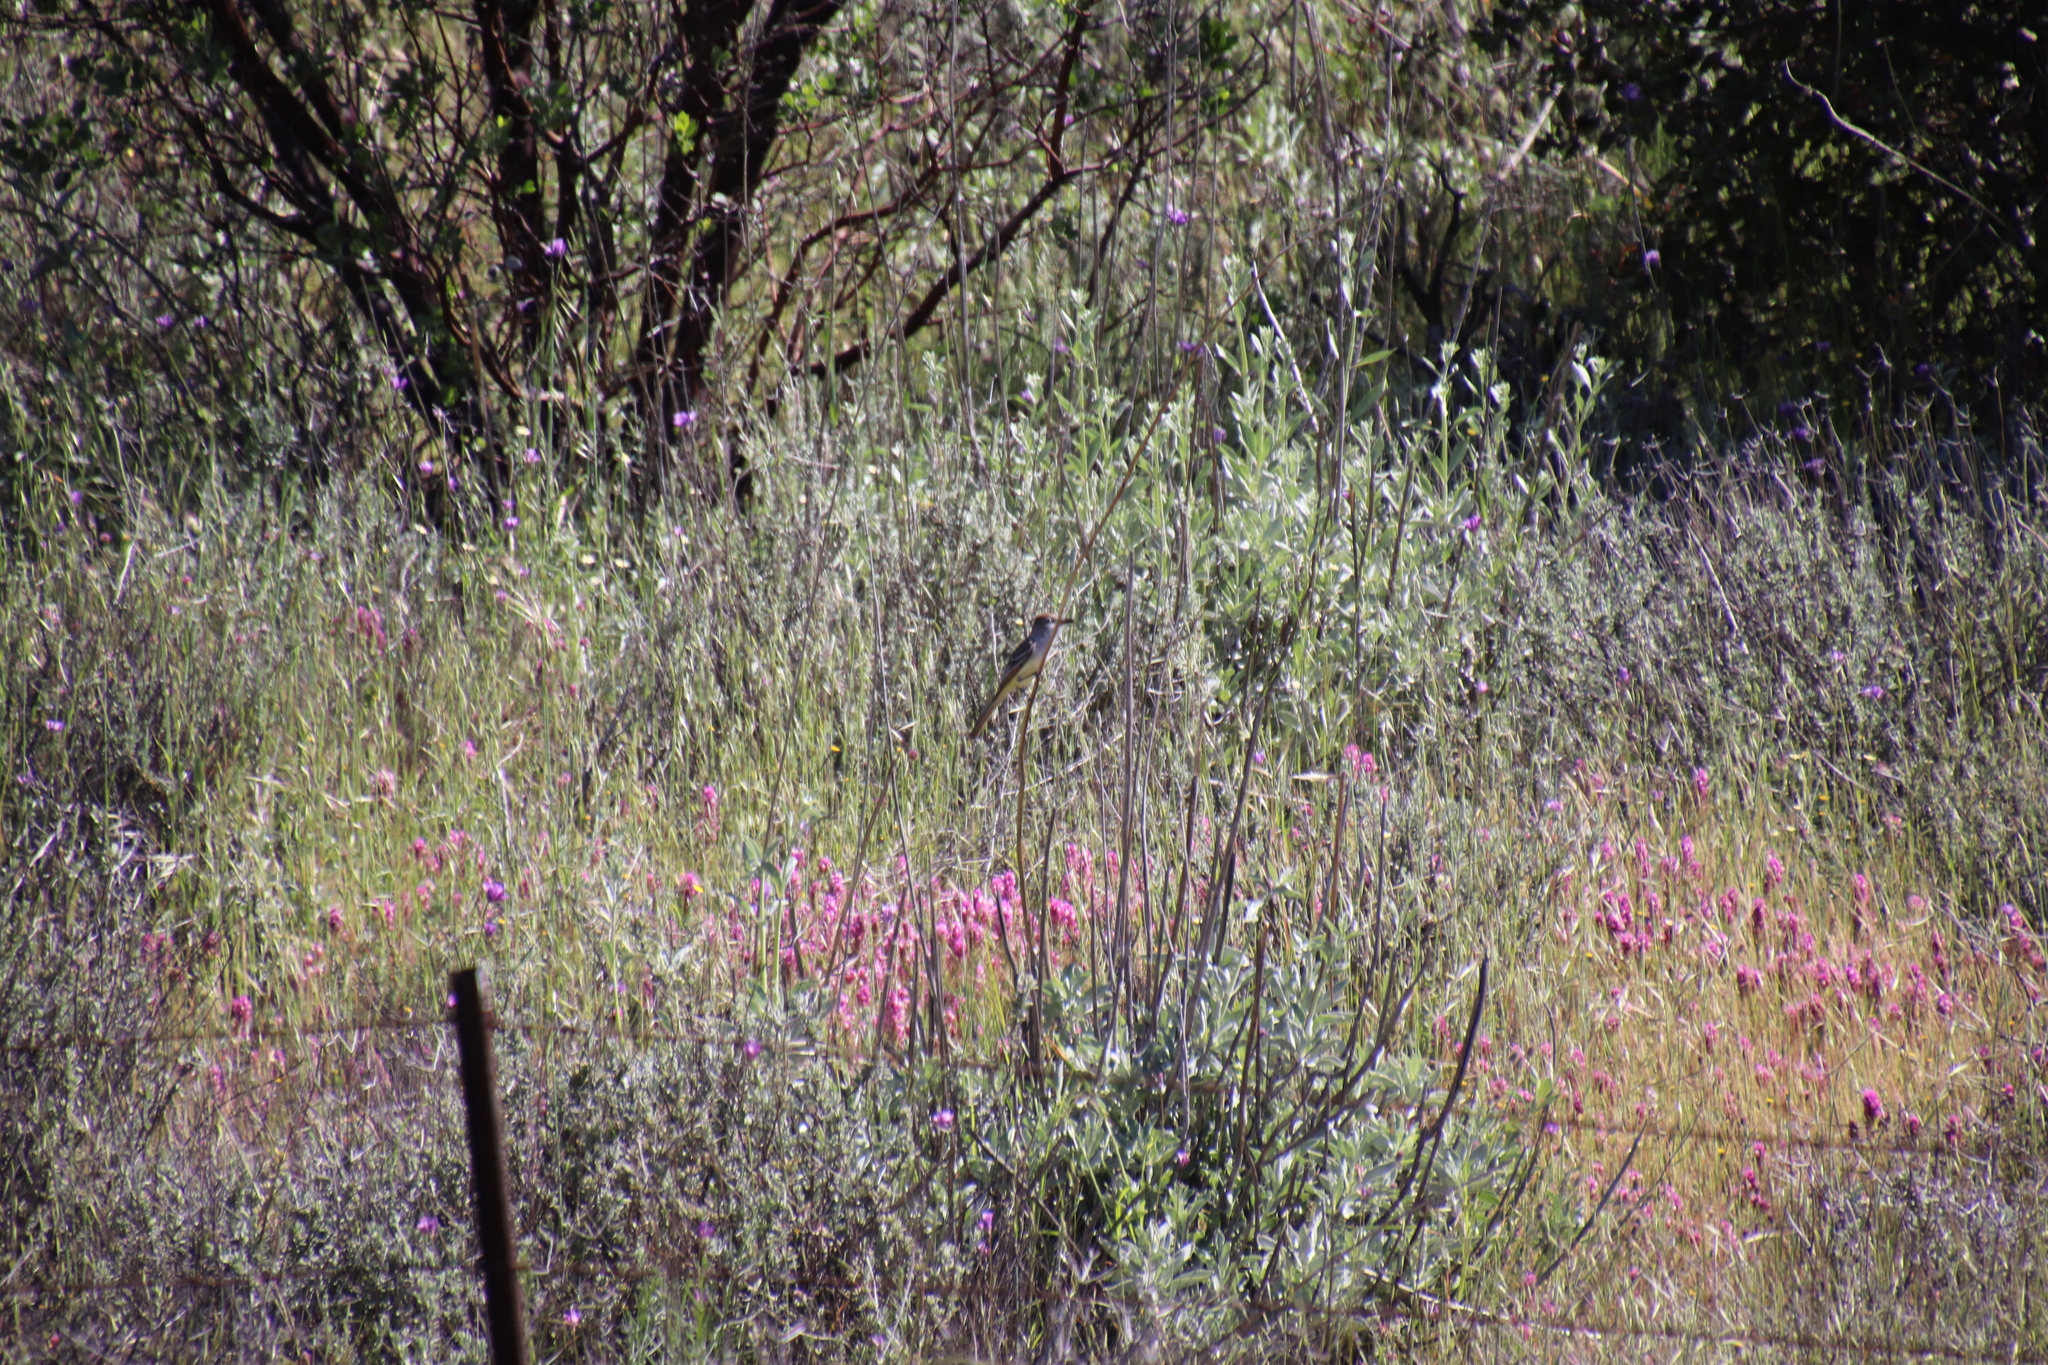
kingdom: Animalia
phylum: Chordata
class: Aves
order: Passeriformes
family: Tyrannidae
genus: Myiarchus
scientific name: Myiarchus cinerascens
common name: Ash-throated flycatcher
